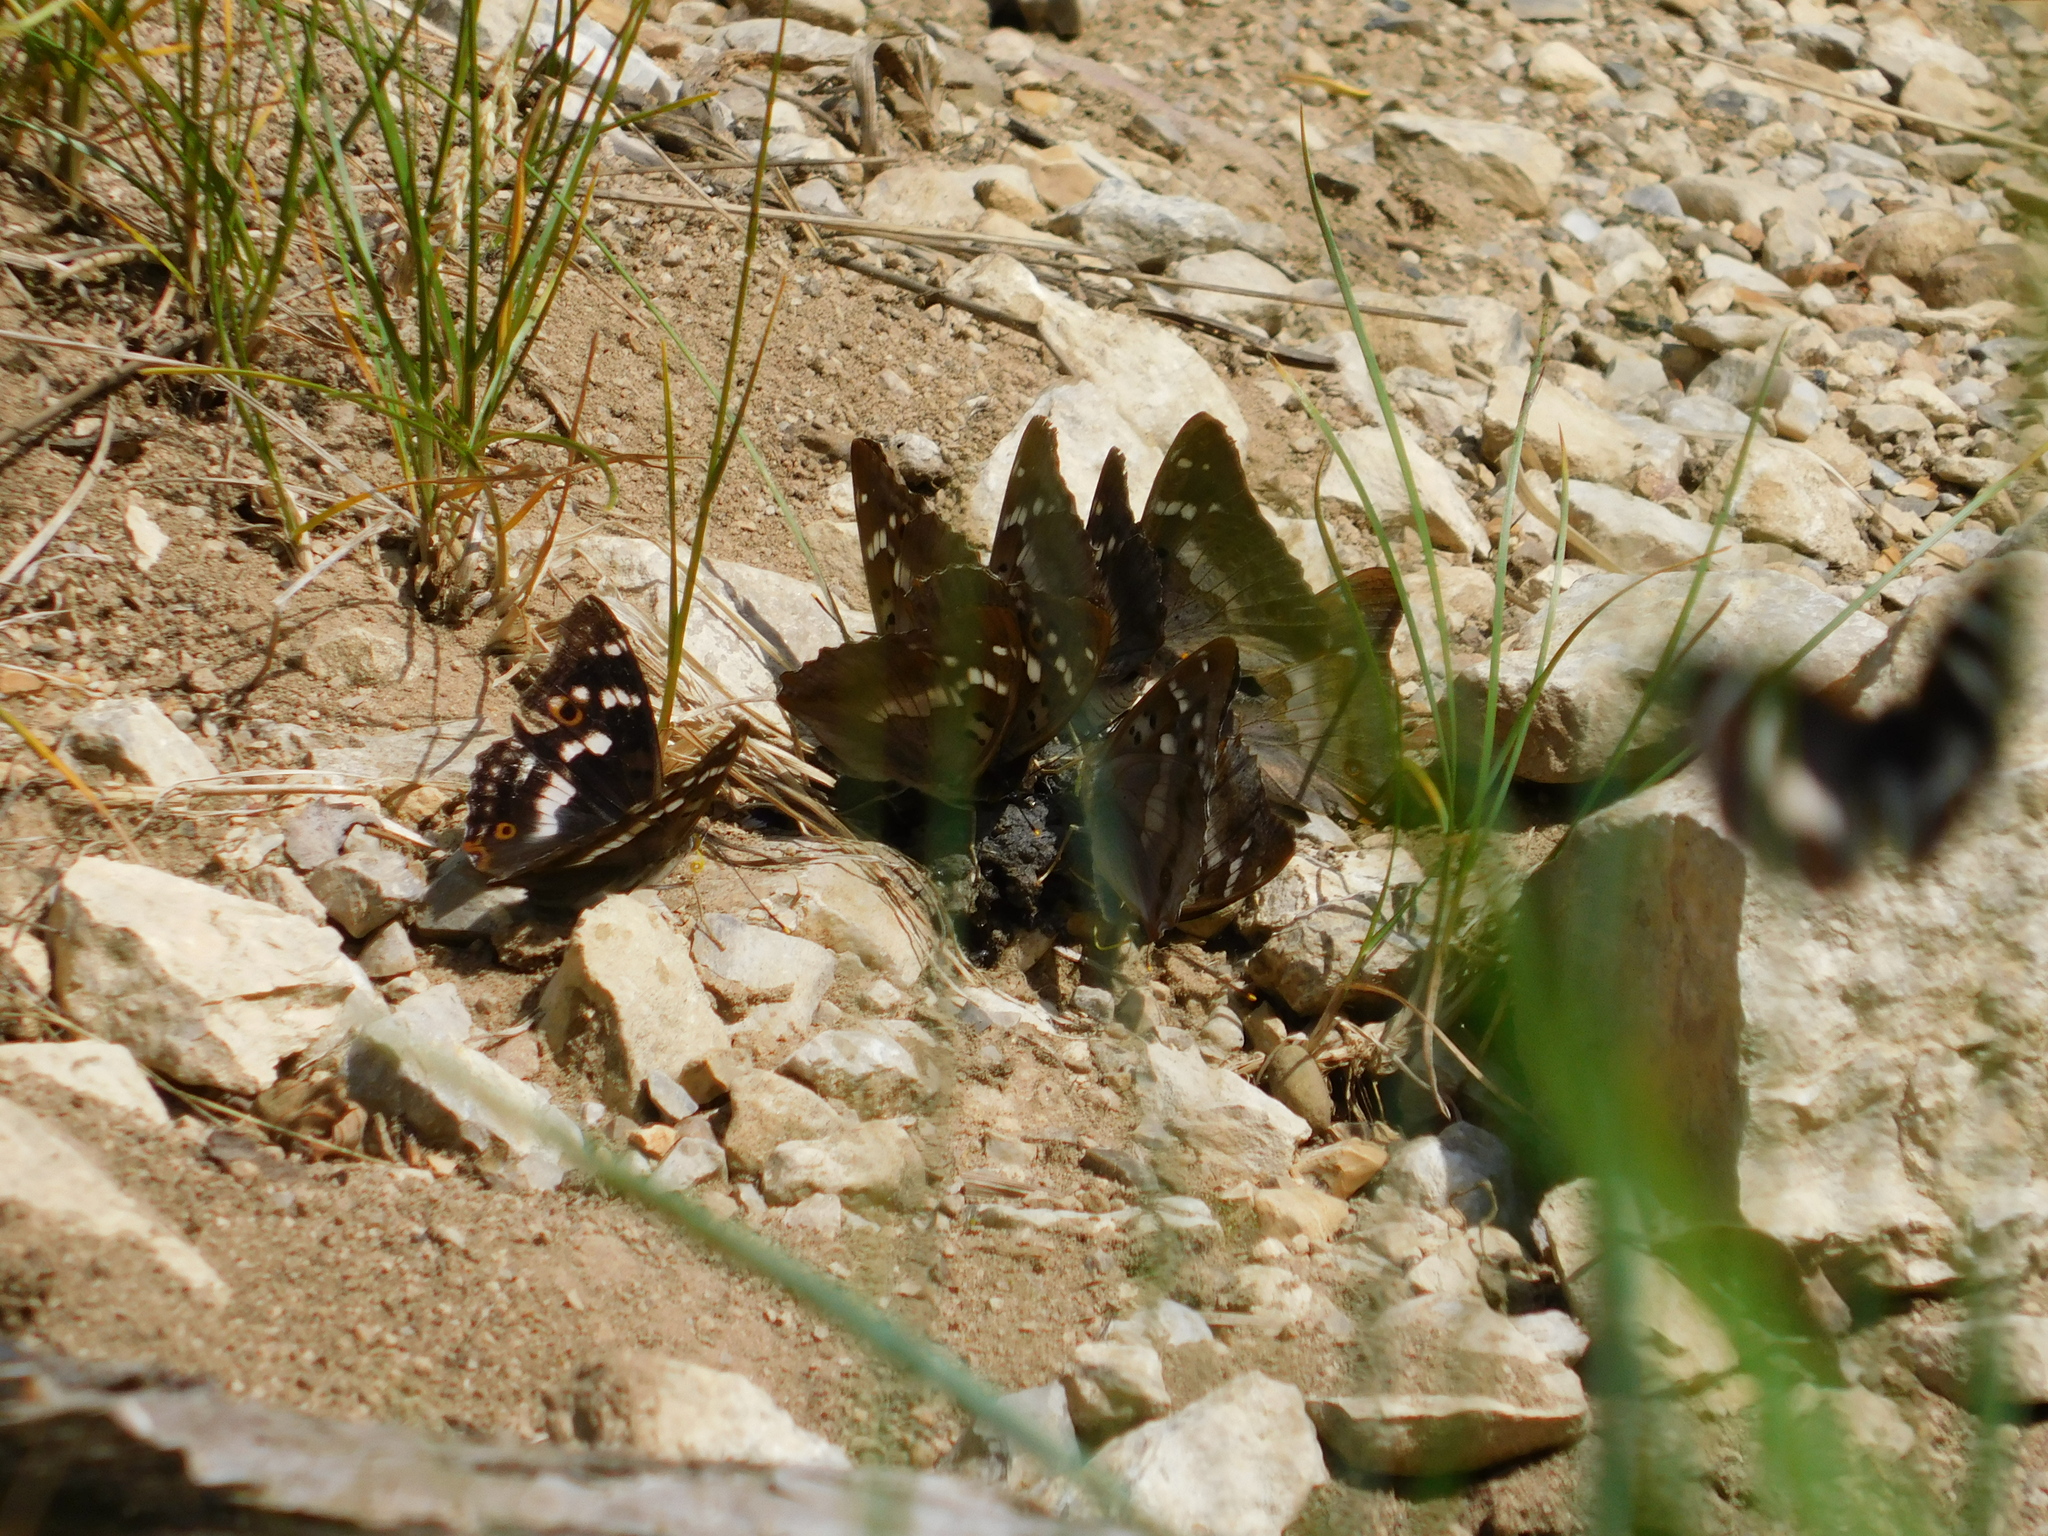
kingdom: Animalia
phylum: Arthropoda
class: Insecta
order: Lepidoptera
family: Nymphalidae
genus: Apatura
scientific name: Apatura ilia
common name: Lesser purple emperor
